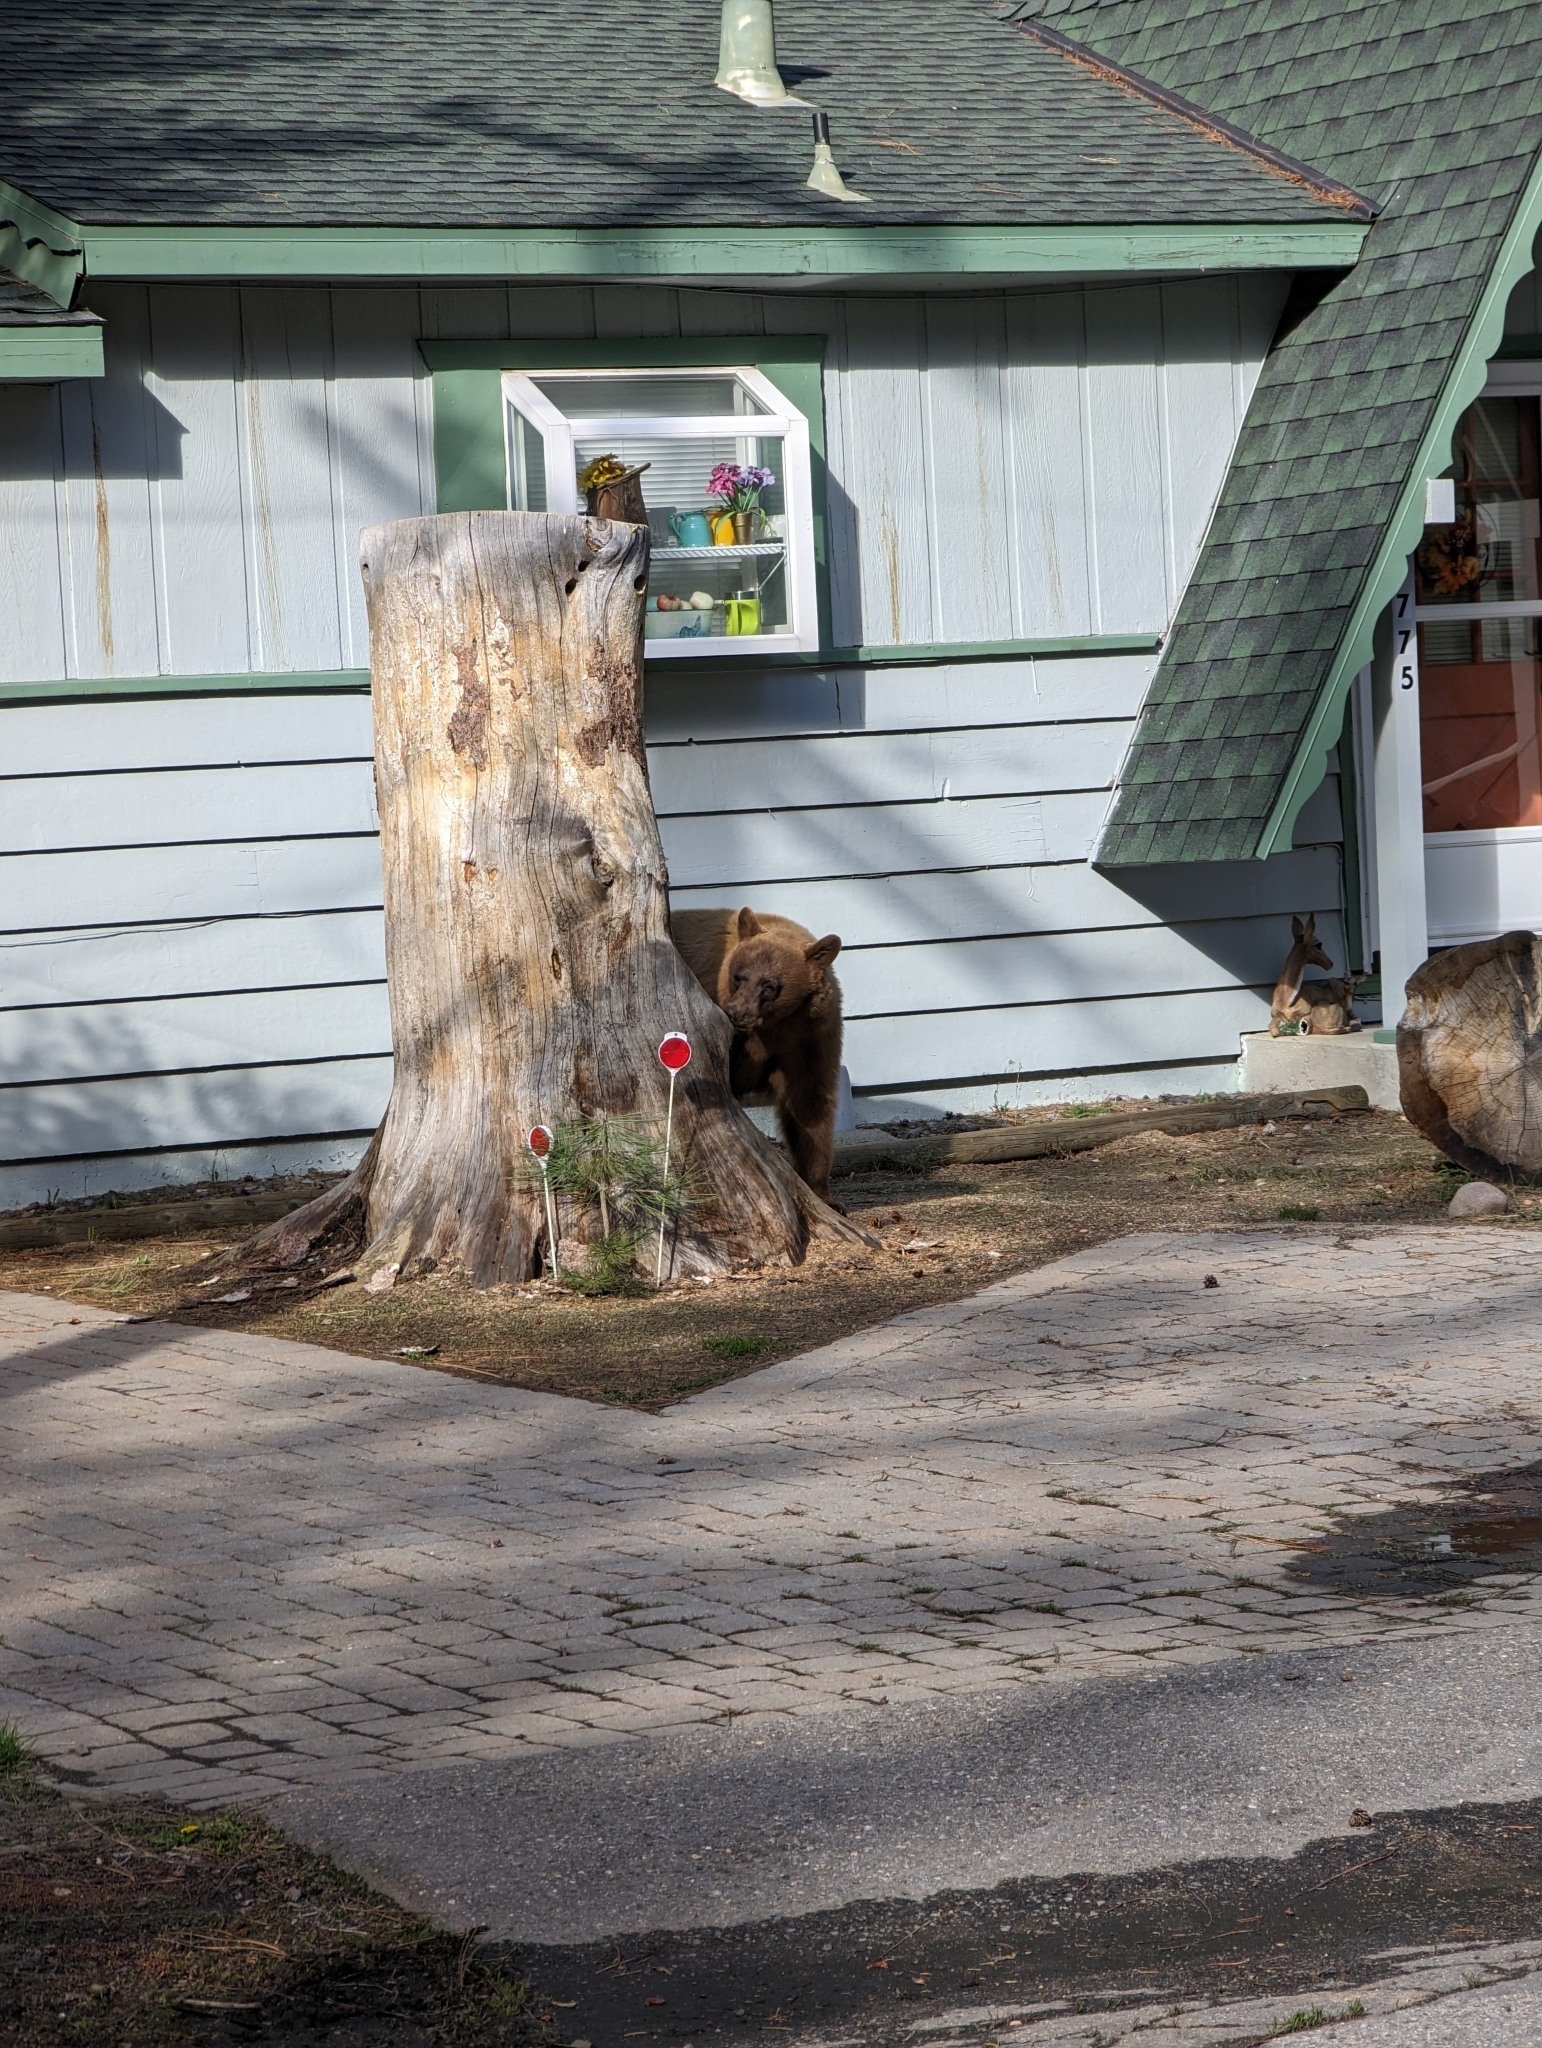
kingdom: Animalia
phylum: Chordata
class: Mammalia
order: Carnivora
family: Ursidae
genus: Ursus
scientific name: Ursus americanus
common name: American black bear
